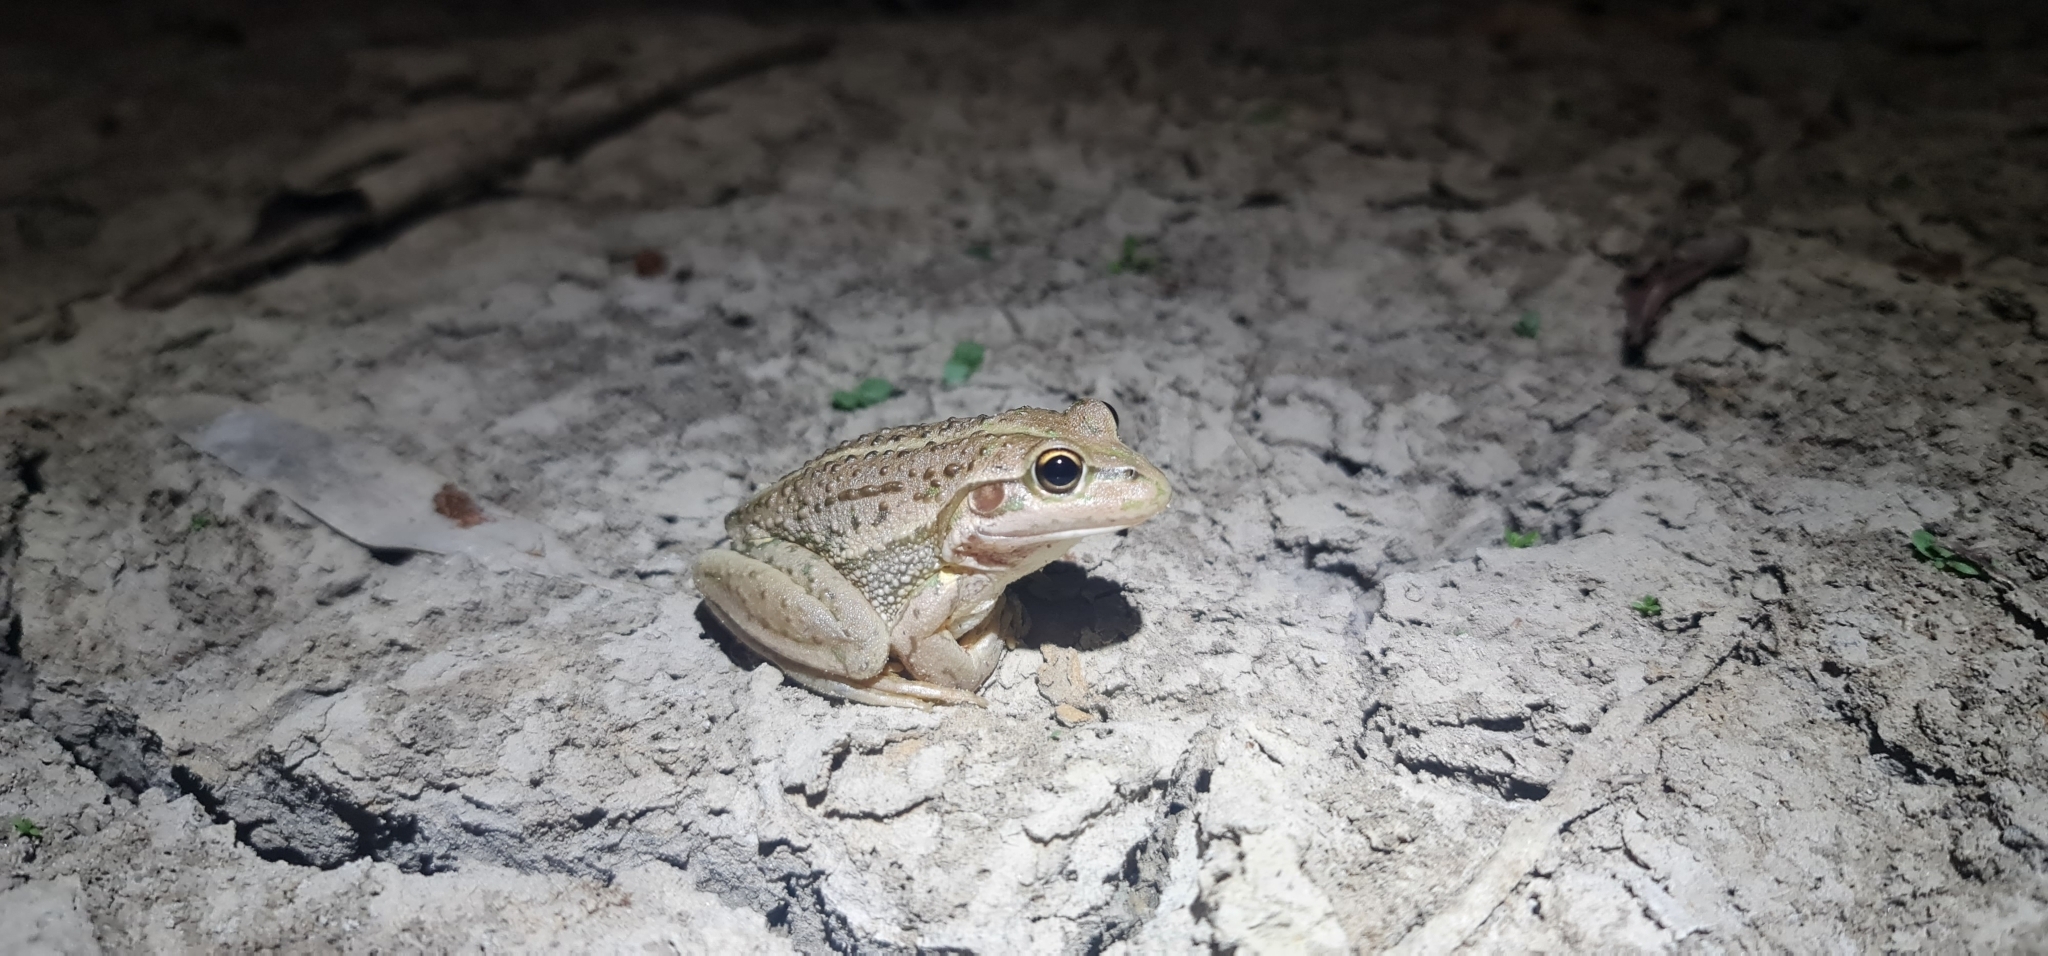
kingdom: Animalia
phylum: Chordata
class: Amphibia
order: Anura
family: Pelodryadidae
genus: Ranoidea
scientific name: Ranoidea raniformis
